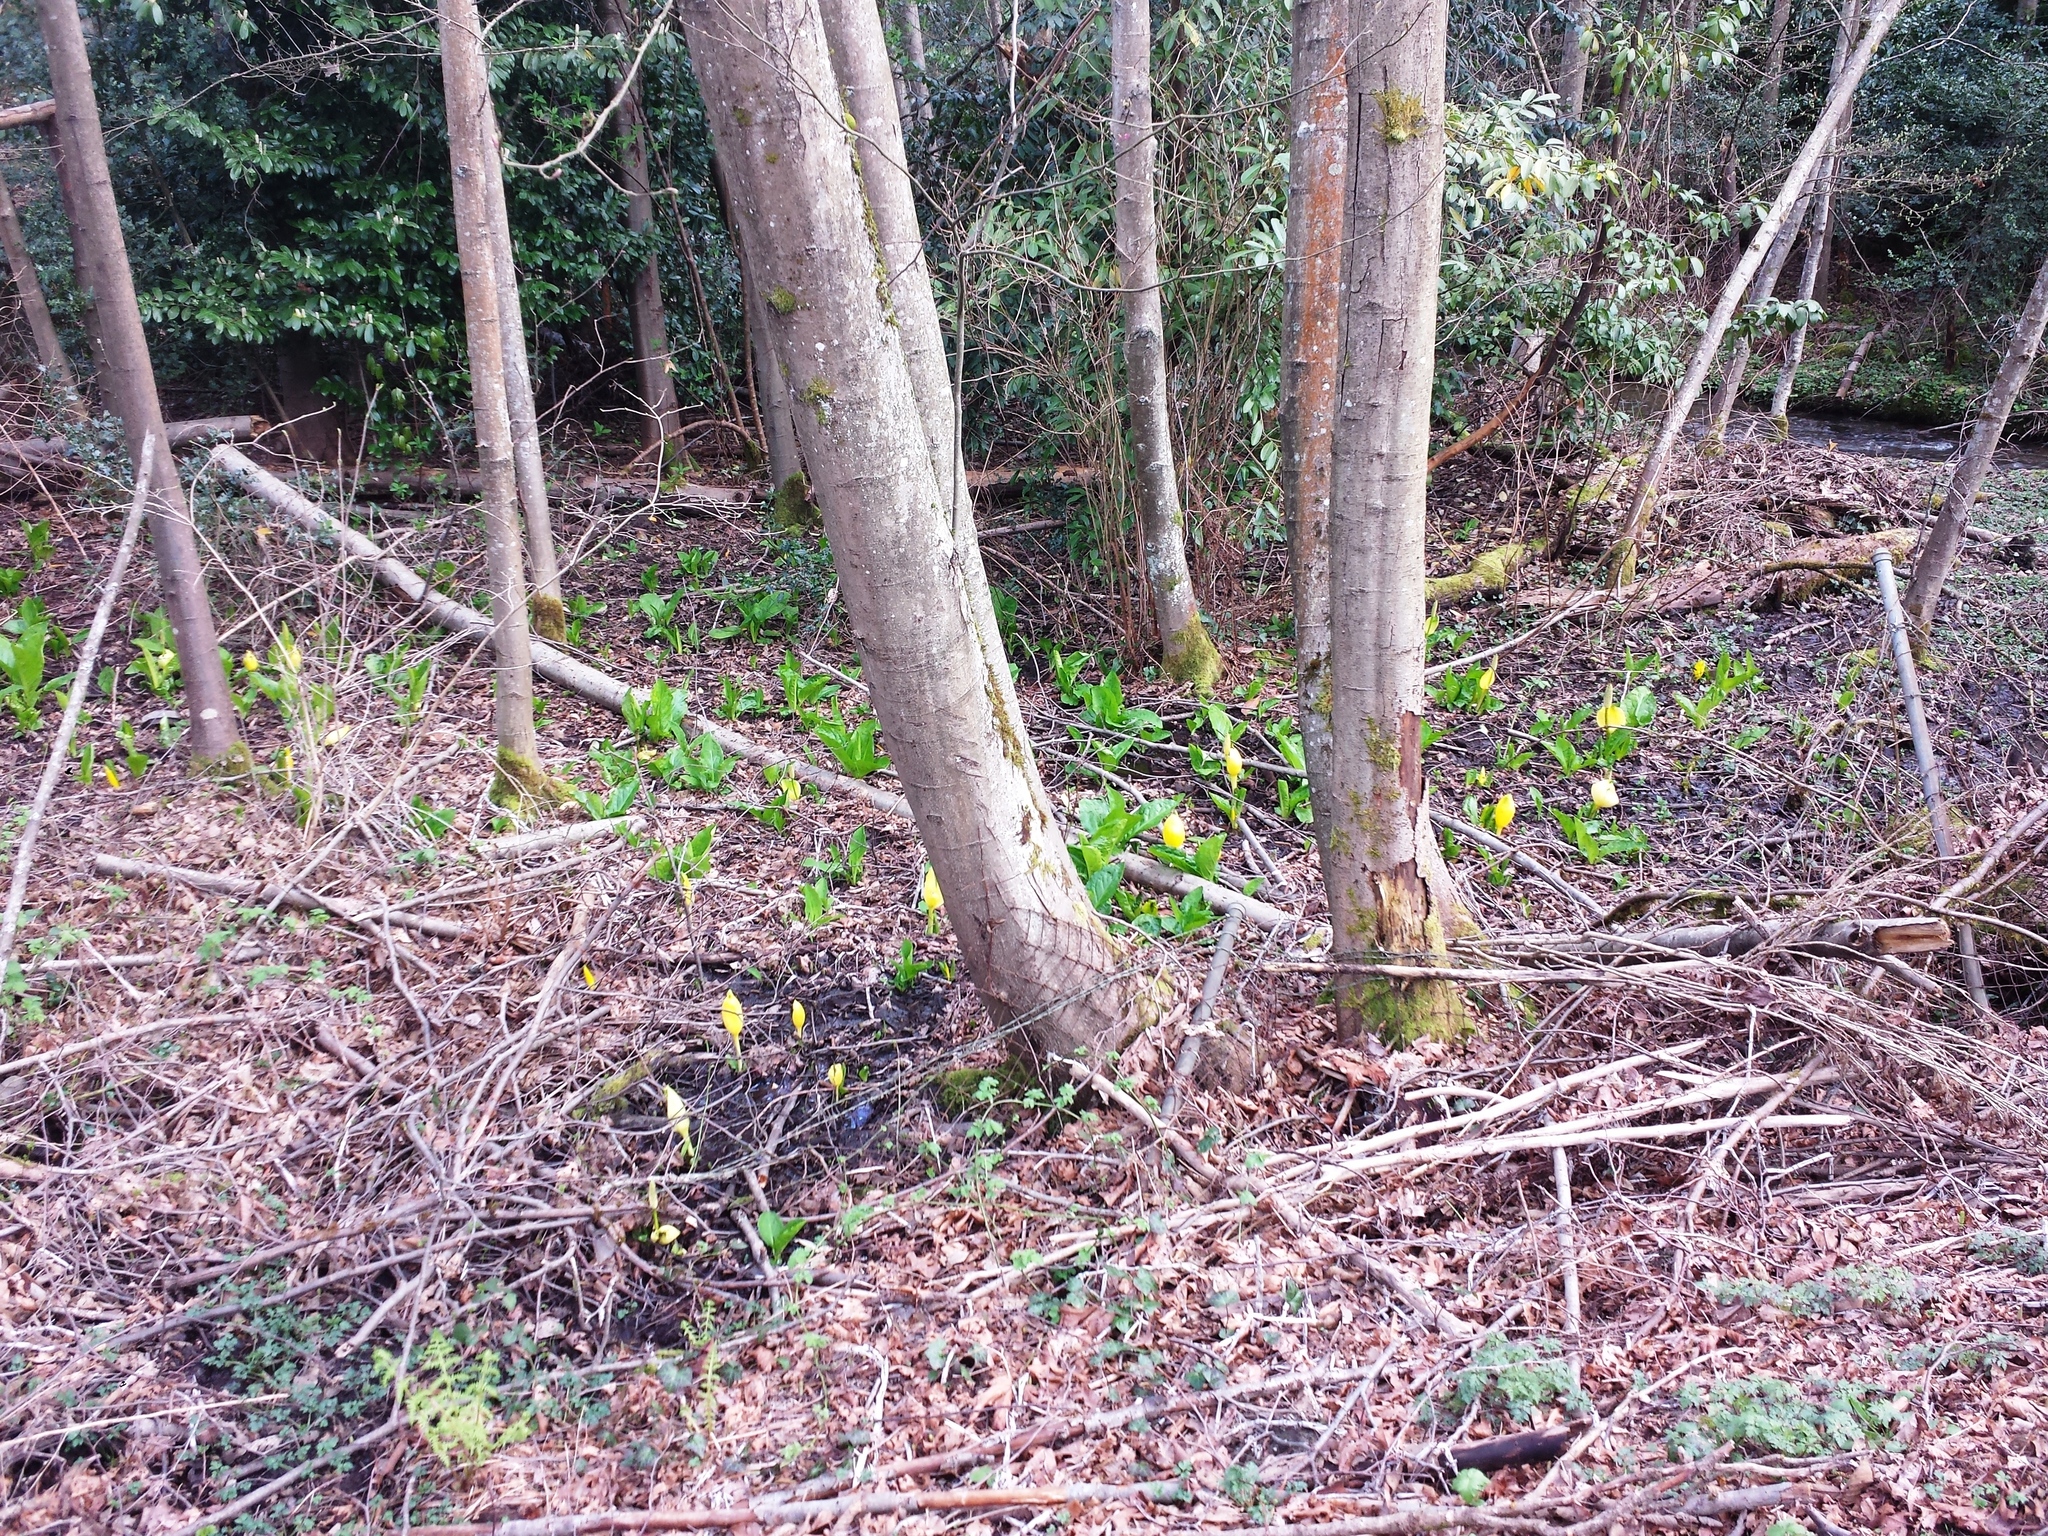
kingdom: Plantae
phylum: Tracheophyta
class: Liliopsida
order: Alismatales
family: Araceae
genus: Lysichiton
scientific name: Lysichiton americanus
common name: American skunk cabbage
